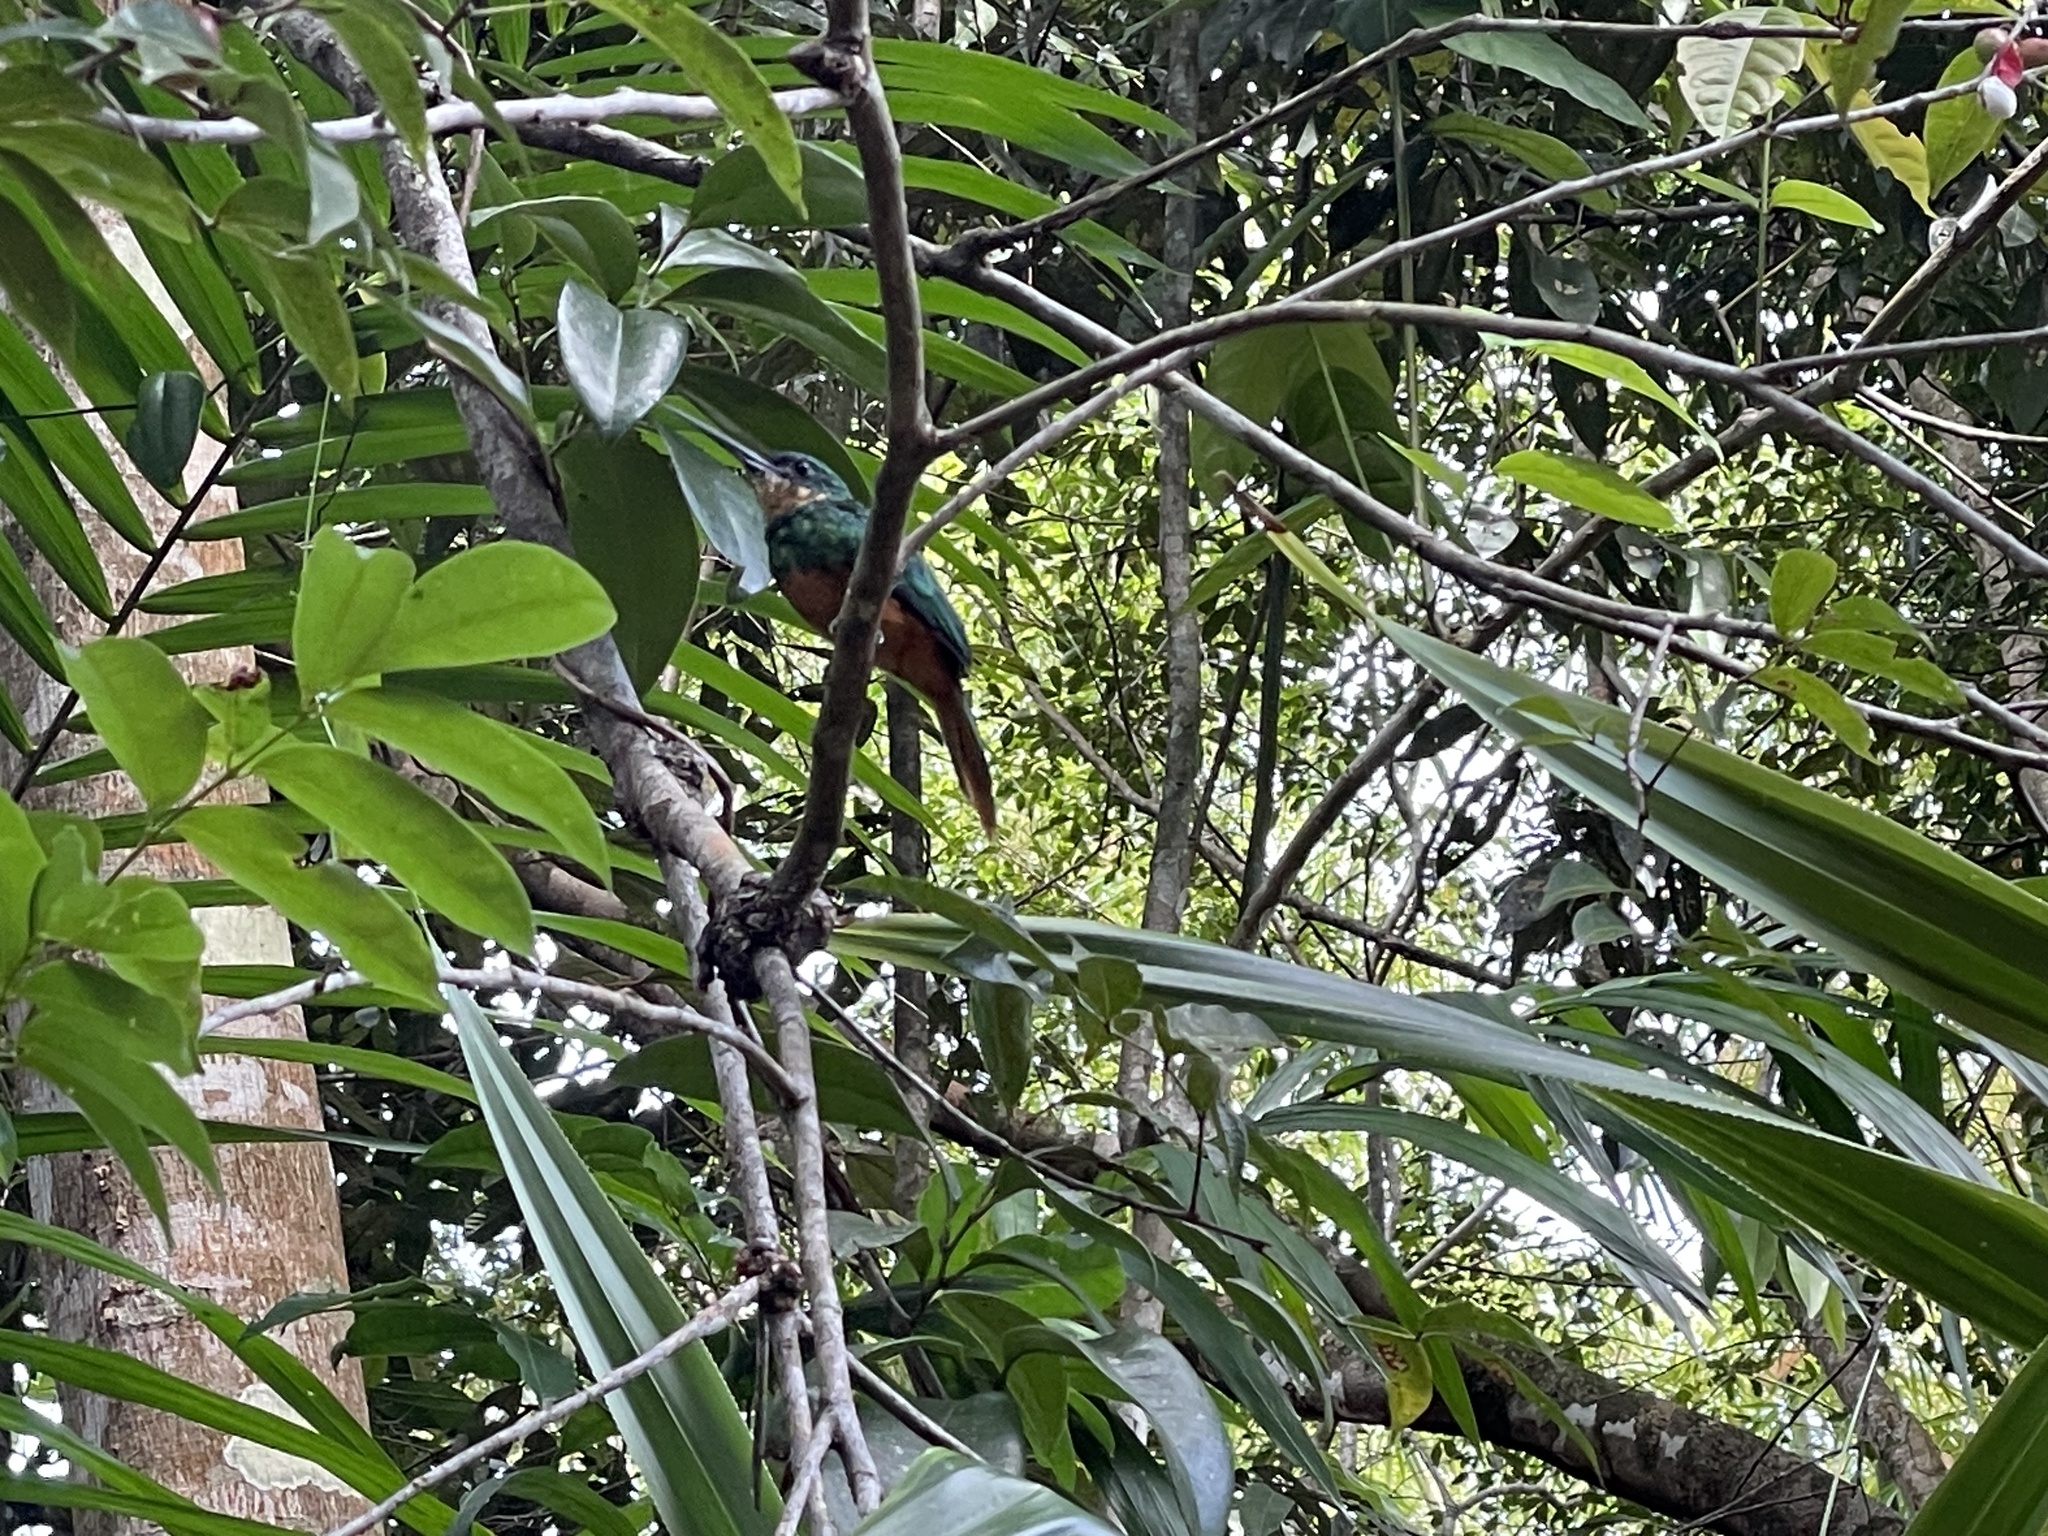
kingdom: Animalia
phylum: Chordata
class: Aves
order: Piciformes
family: Galbulidae
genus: Galbula
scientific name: Galbula ruficauda
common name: Rufous-tailed jacamar
